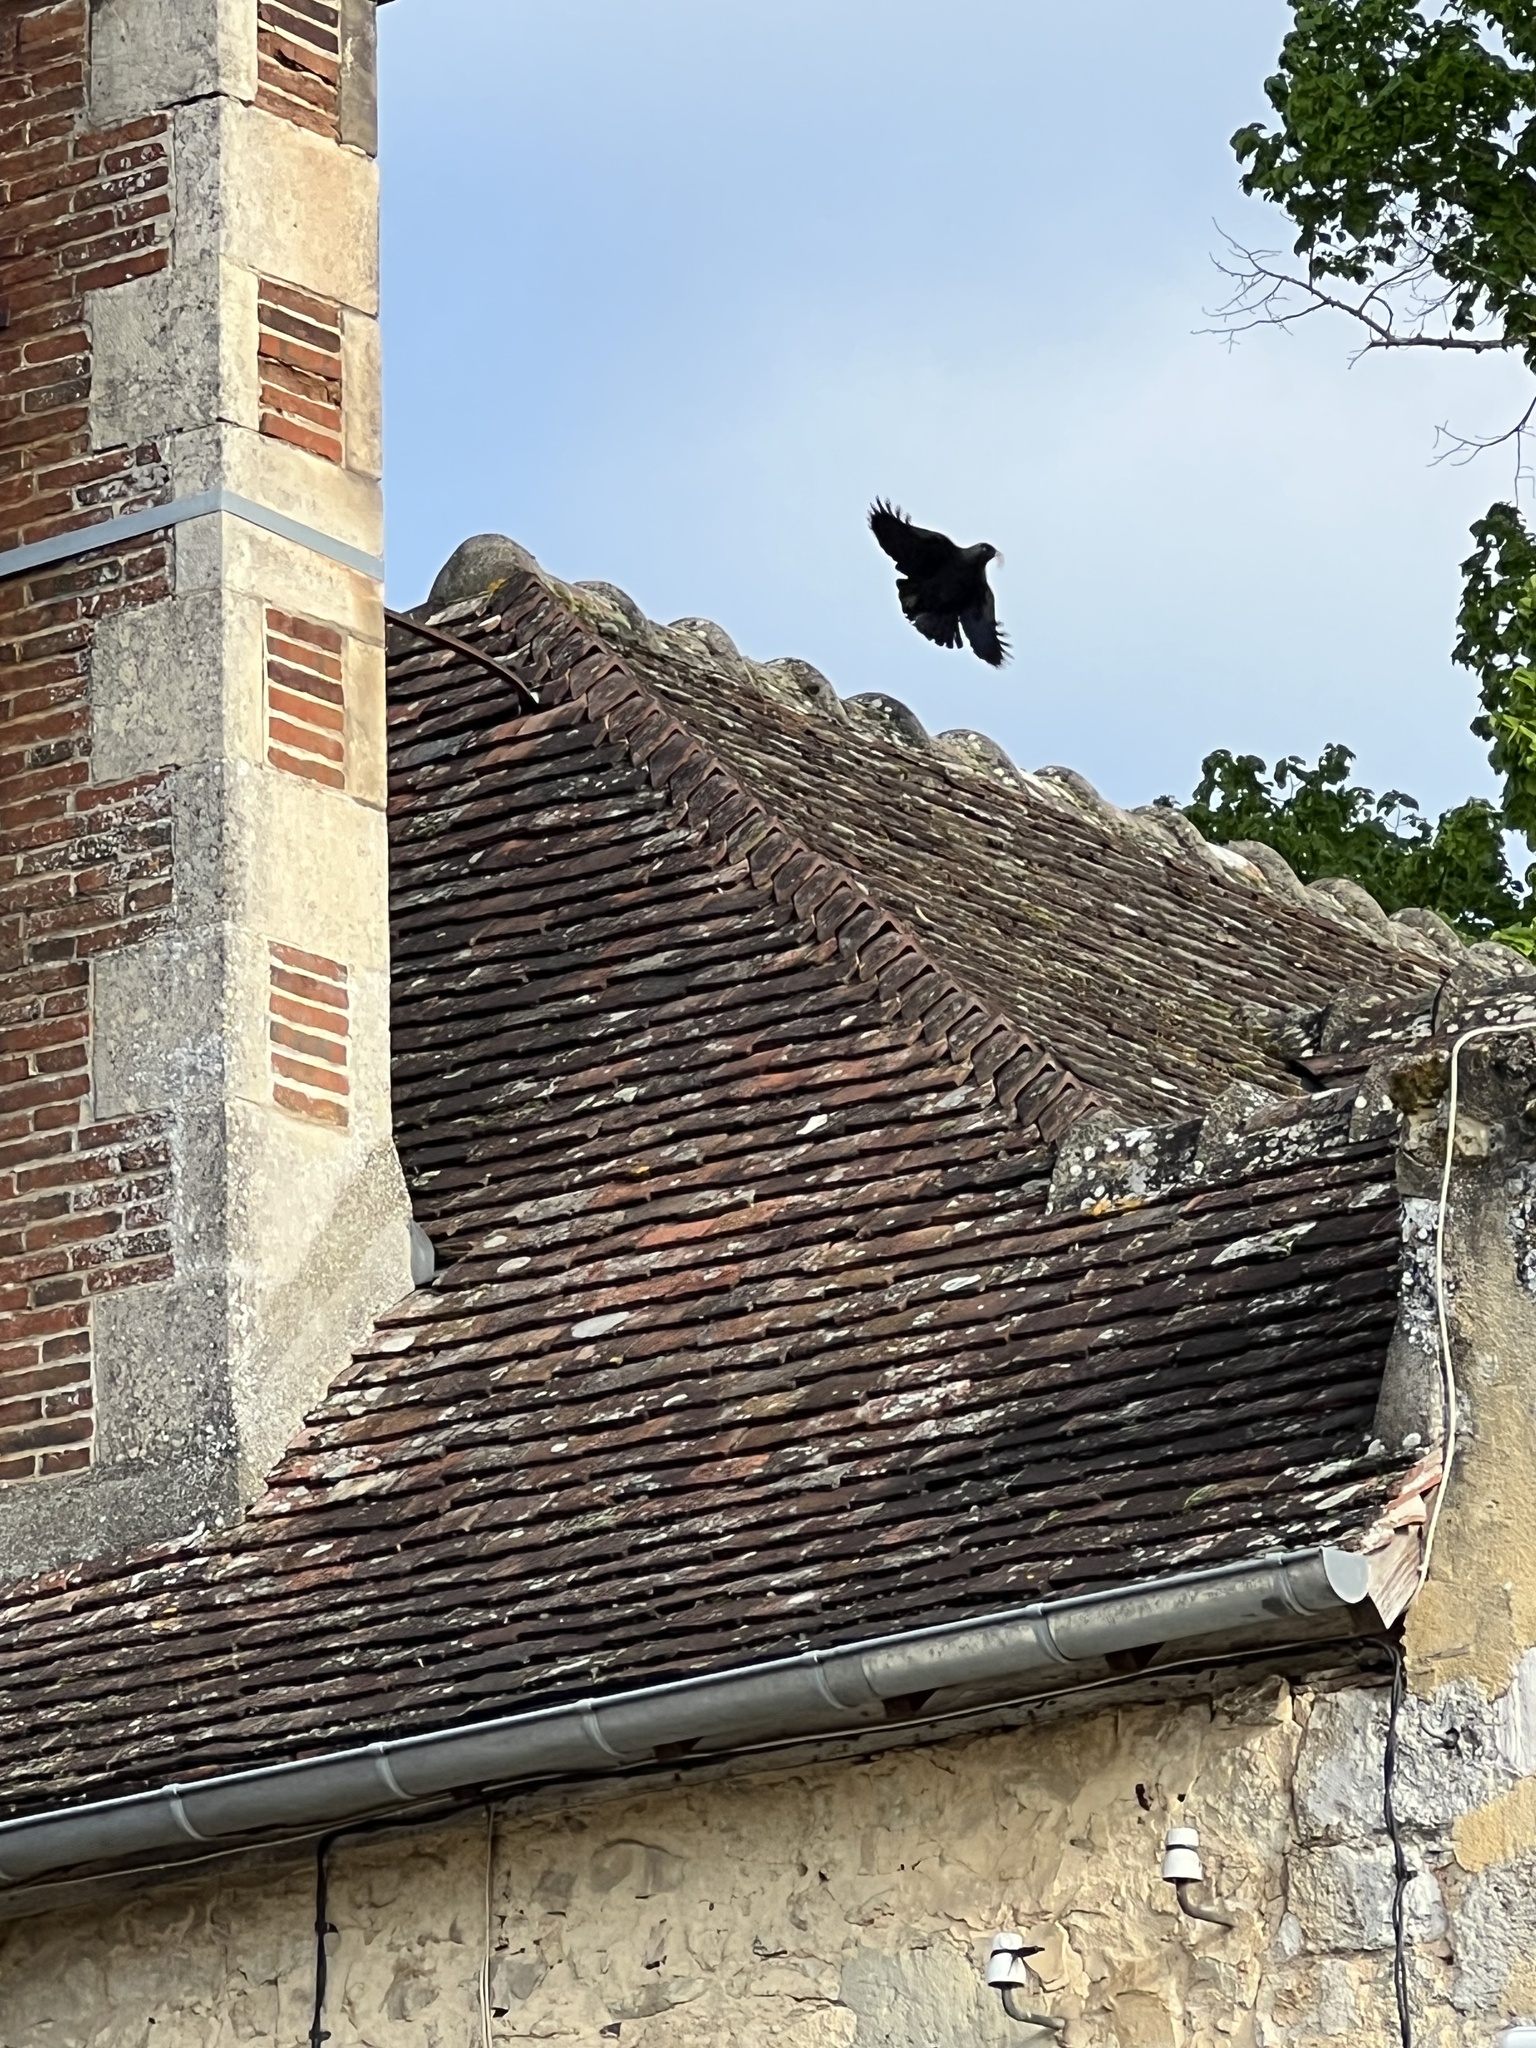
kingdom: Animalia
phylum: Chordata
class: Aves
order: Passeriformes
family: Corvidae
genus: Coloeus
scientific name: Coloeus monedula
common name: Western jackdaw
